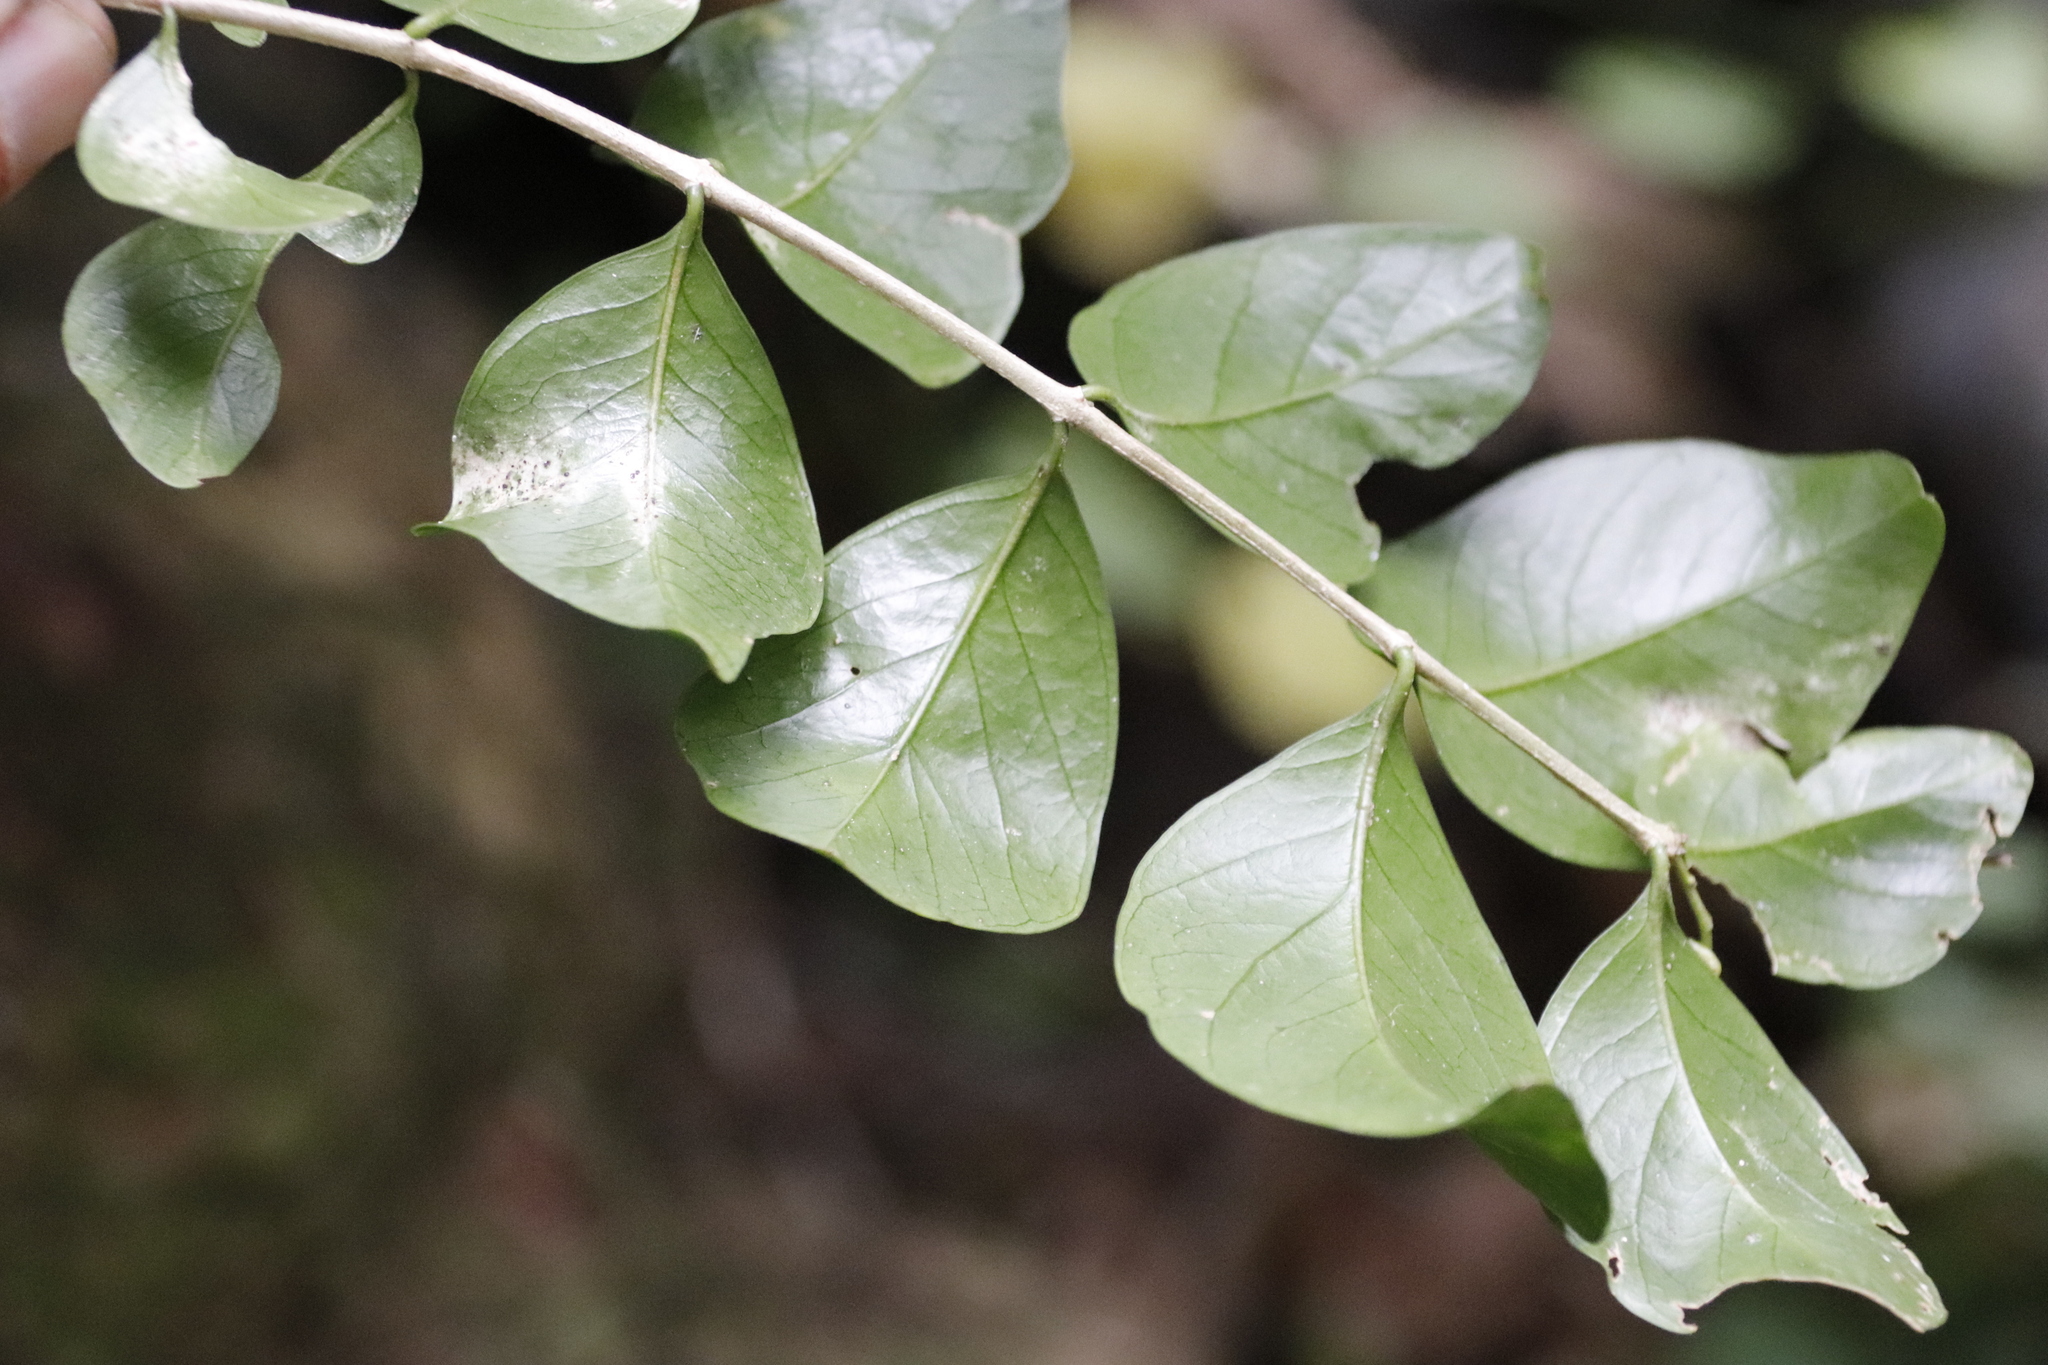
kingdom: Plantae
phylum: Tracheophyta
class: Magnoliopsida
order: Myrtales
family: Penaeaceae
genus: Olinia
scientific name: Olinia ventosa
